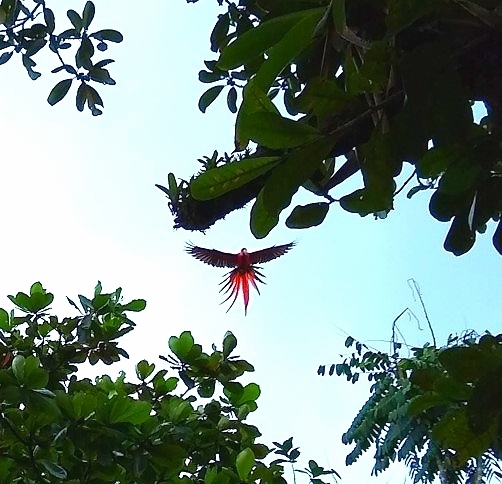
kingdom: Animalia
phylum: Chordata
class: Aves
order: Psittaciformes
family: Psittacidae
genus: Ara
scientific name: Ara macao
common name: Scarlet macaw
